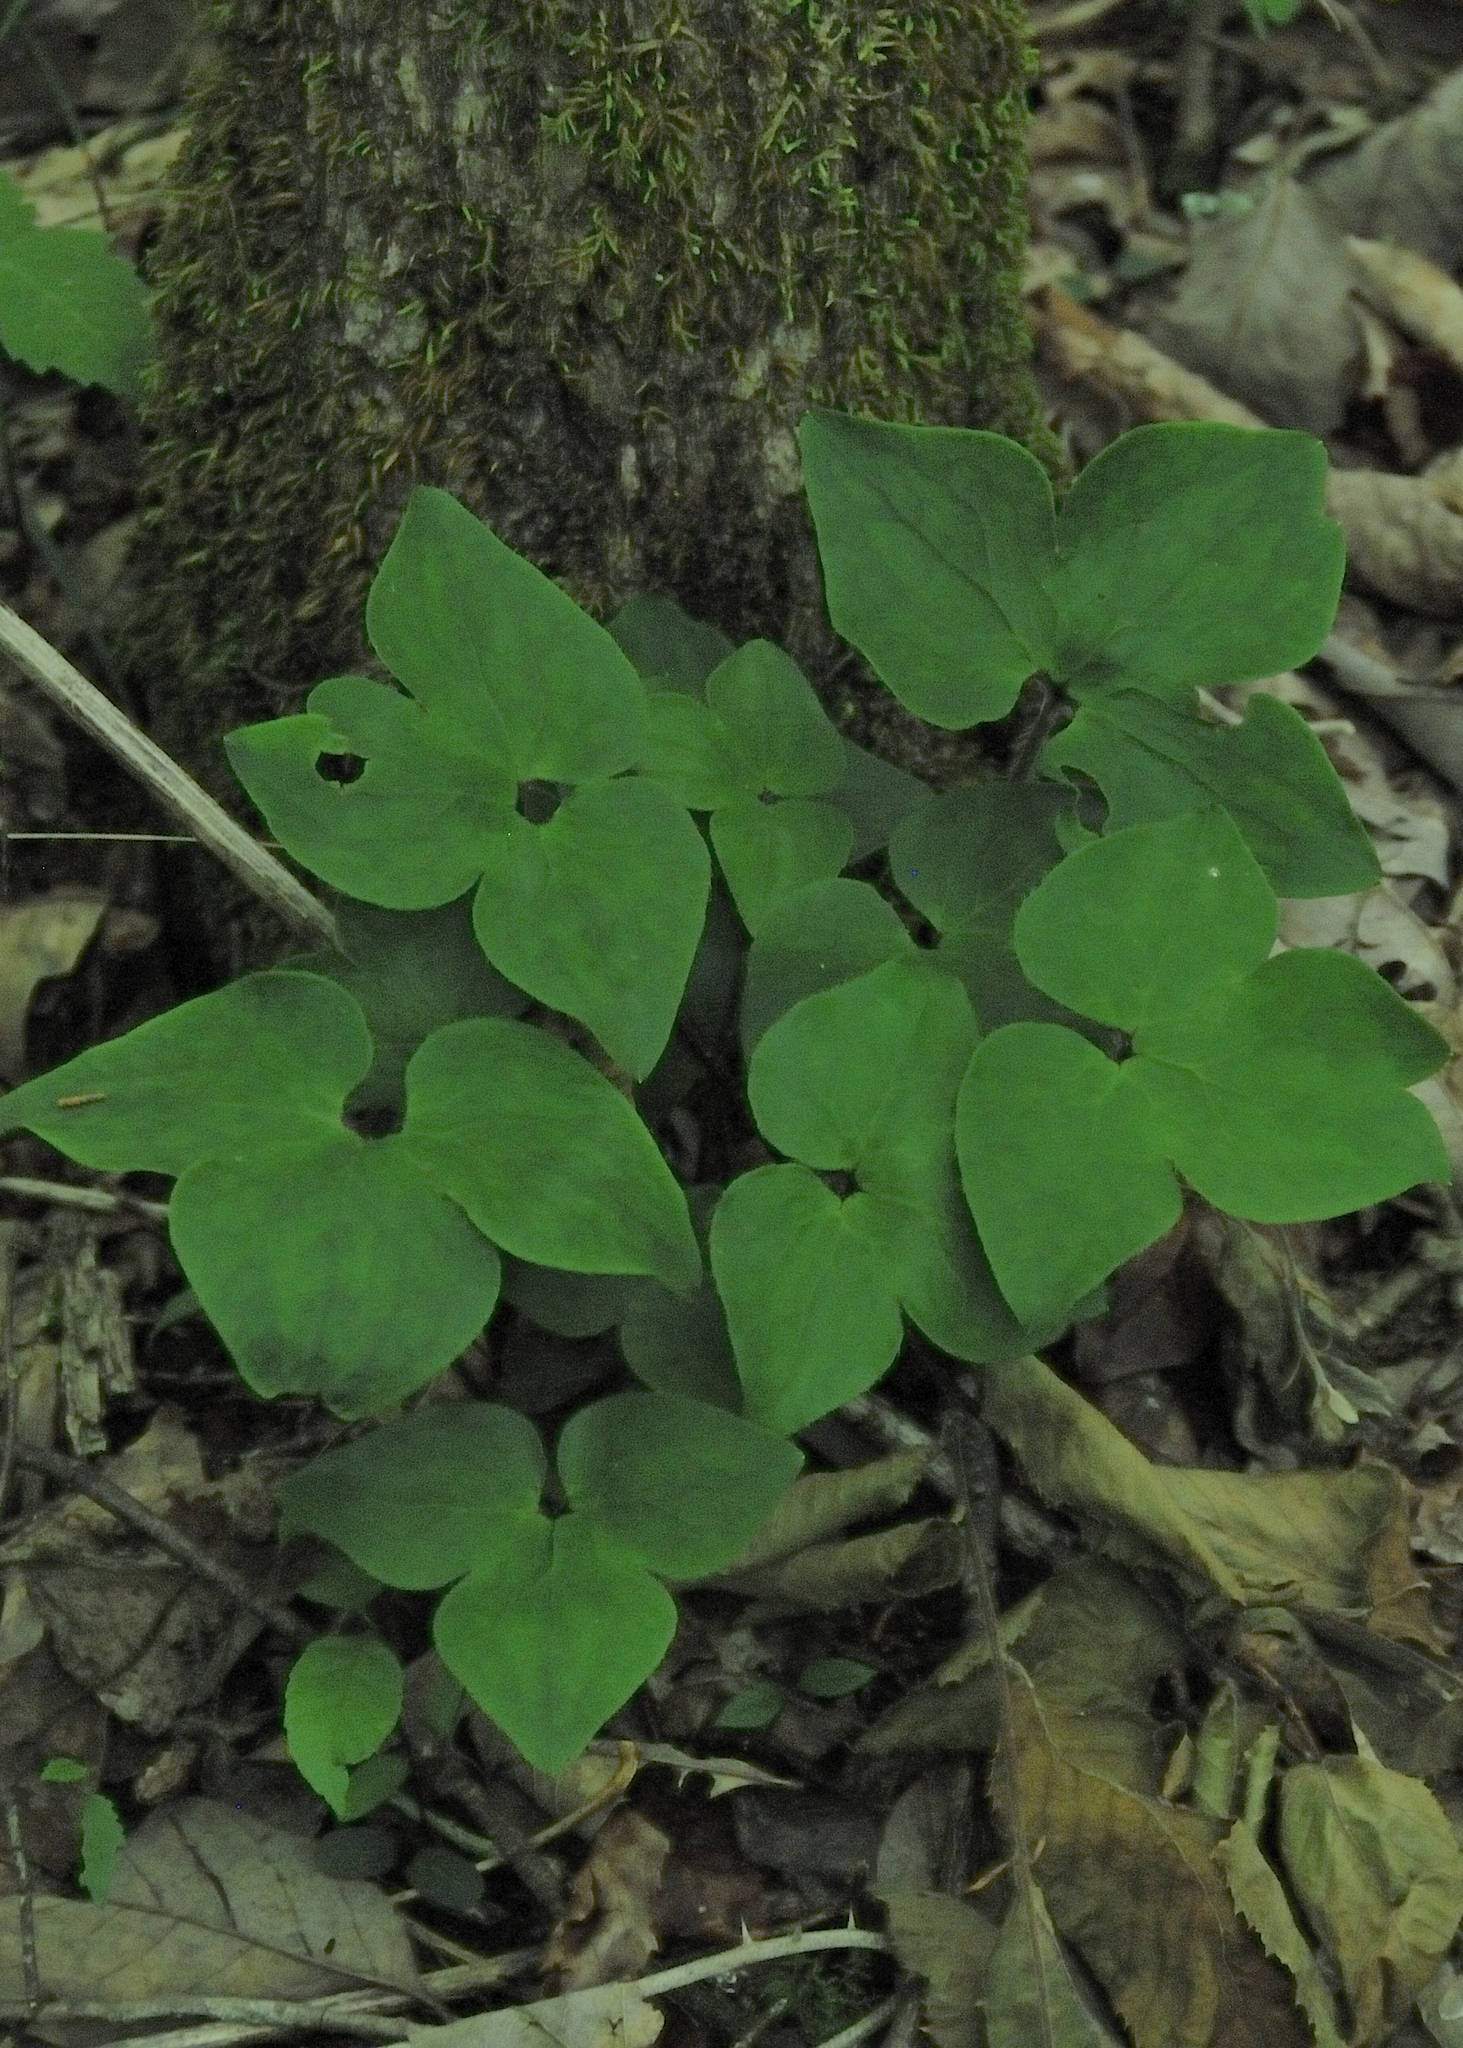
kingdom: Plantae
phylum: Tracheophyta
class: Magnoliopsida
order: Ranunculales
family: Ranunculaceae
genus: Hepatica
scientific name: Hepatica acutiloba
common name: Sharp-lobed hepatica
